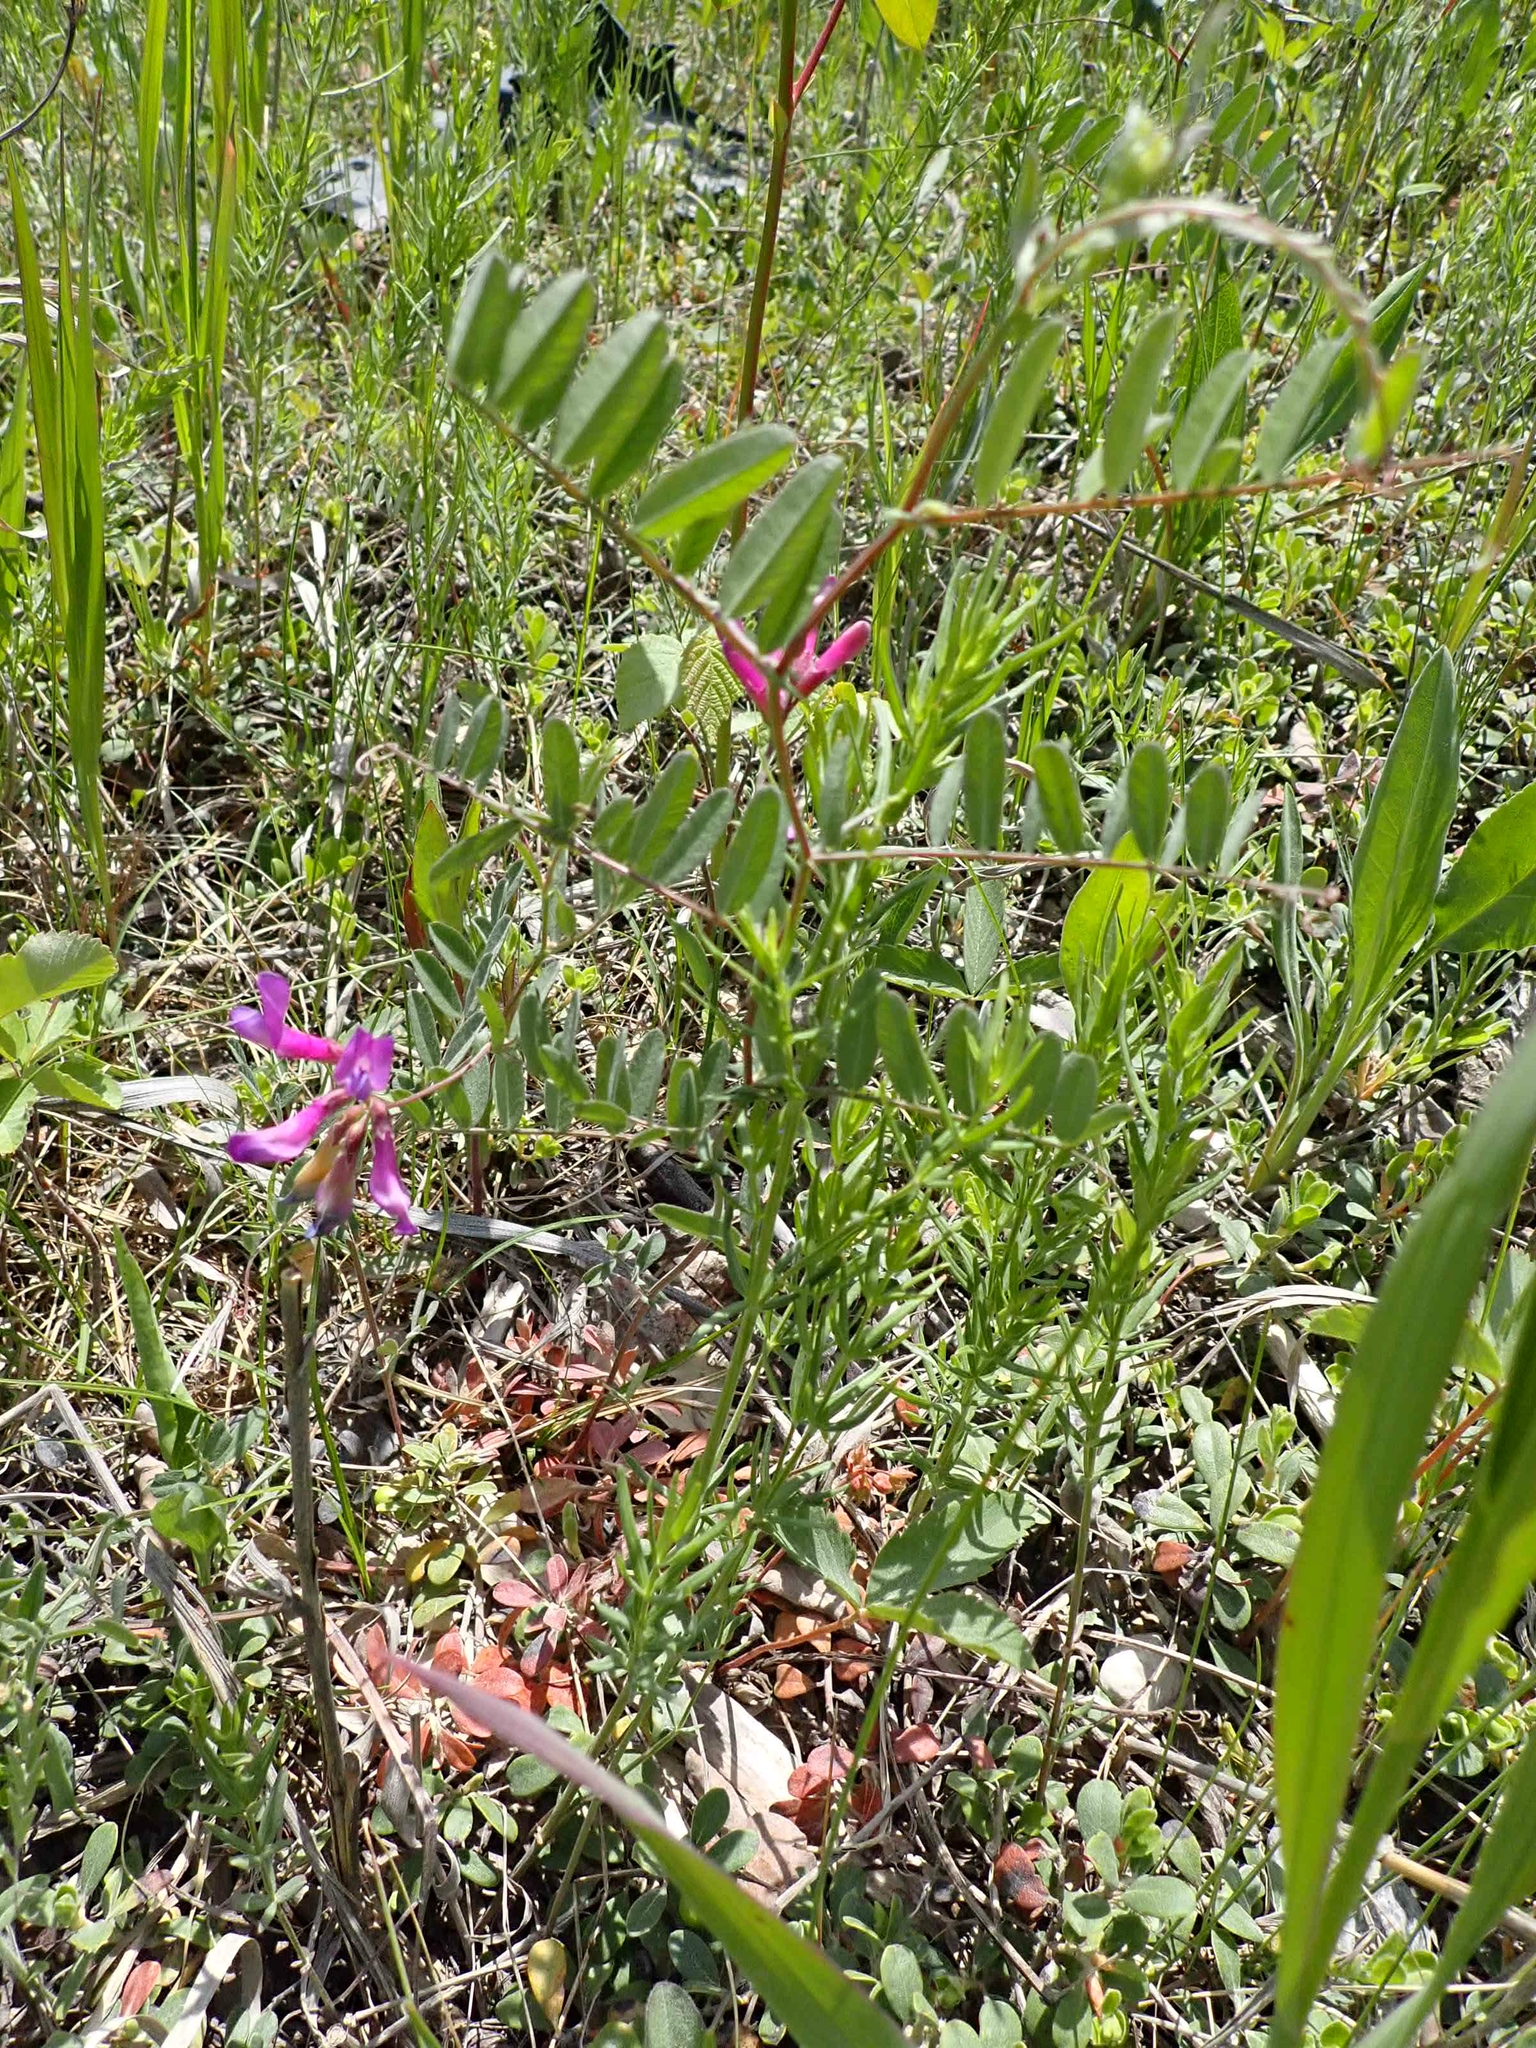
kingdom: Plantae
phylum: Tracheophyta
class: Magnoliopsida
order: Fabales
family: Fabaceae
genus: Vicia
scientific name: Vicia americana
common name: American vetch
